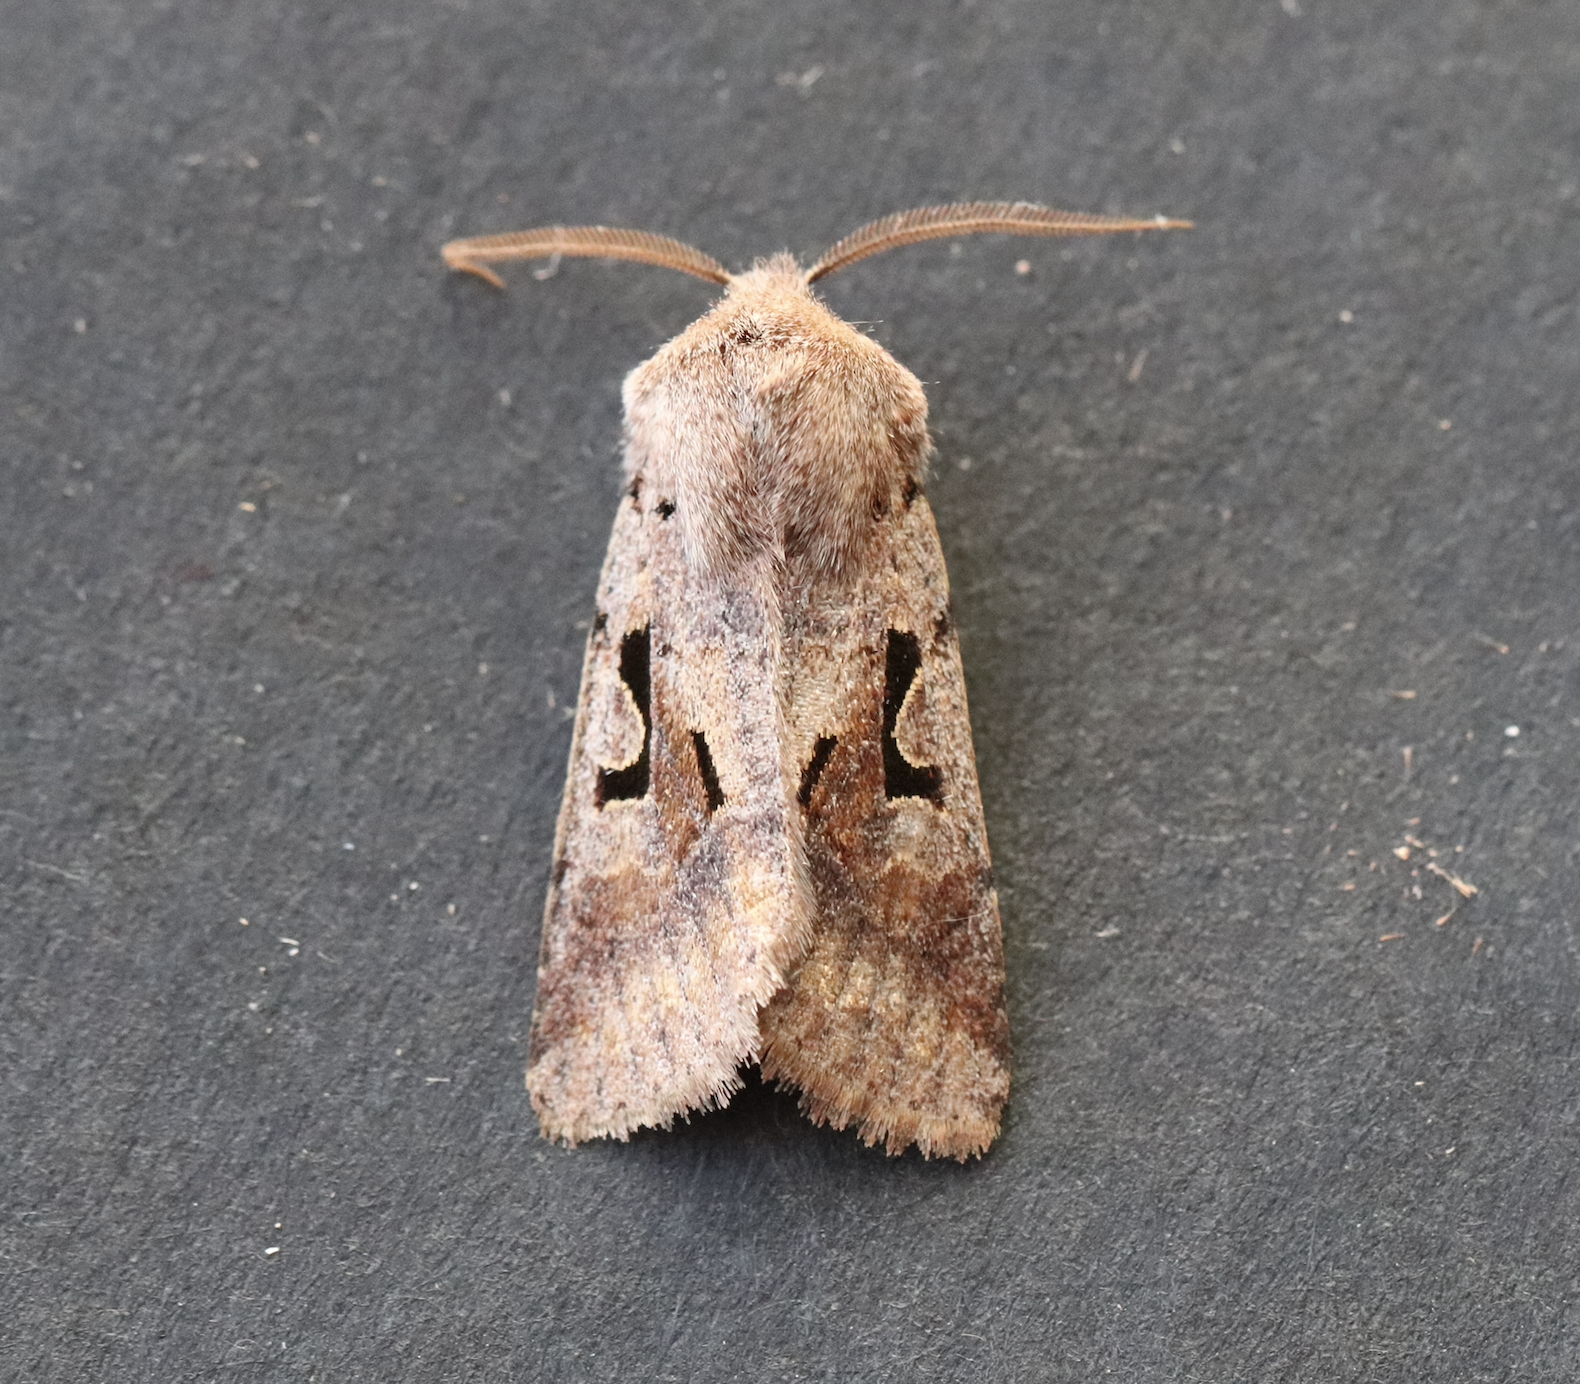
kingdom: Animalia
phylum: Arthropoda
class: Insecta
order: Lepidoptera
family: Noctuidae
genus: Orthosia
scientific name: Orthosia gothica
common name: Hebrew character
